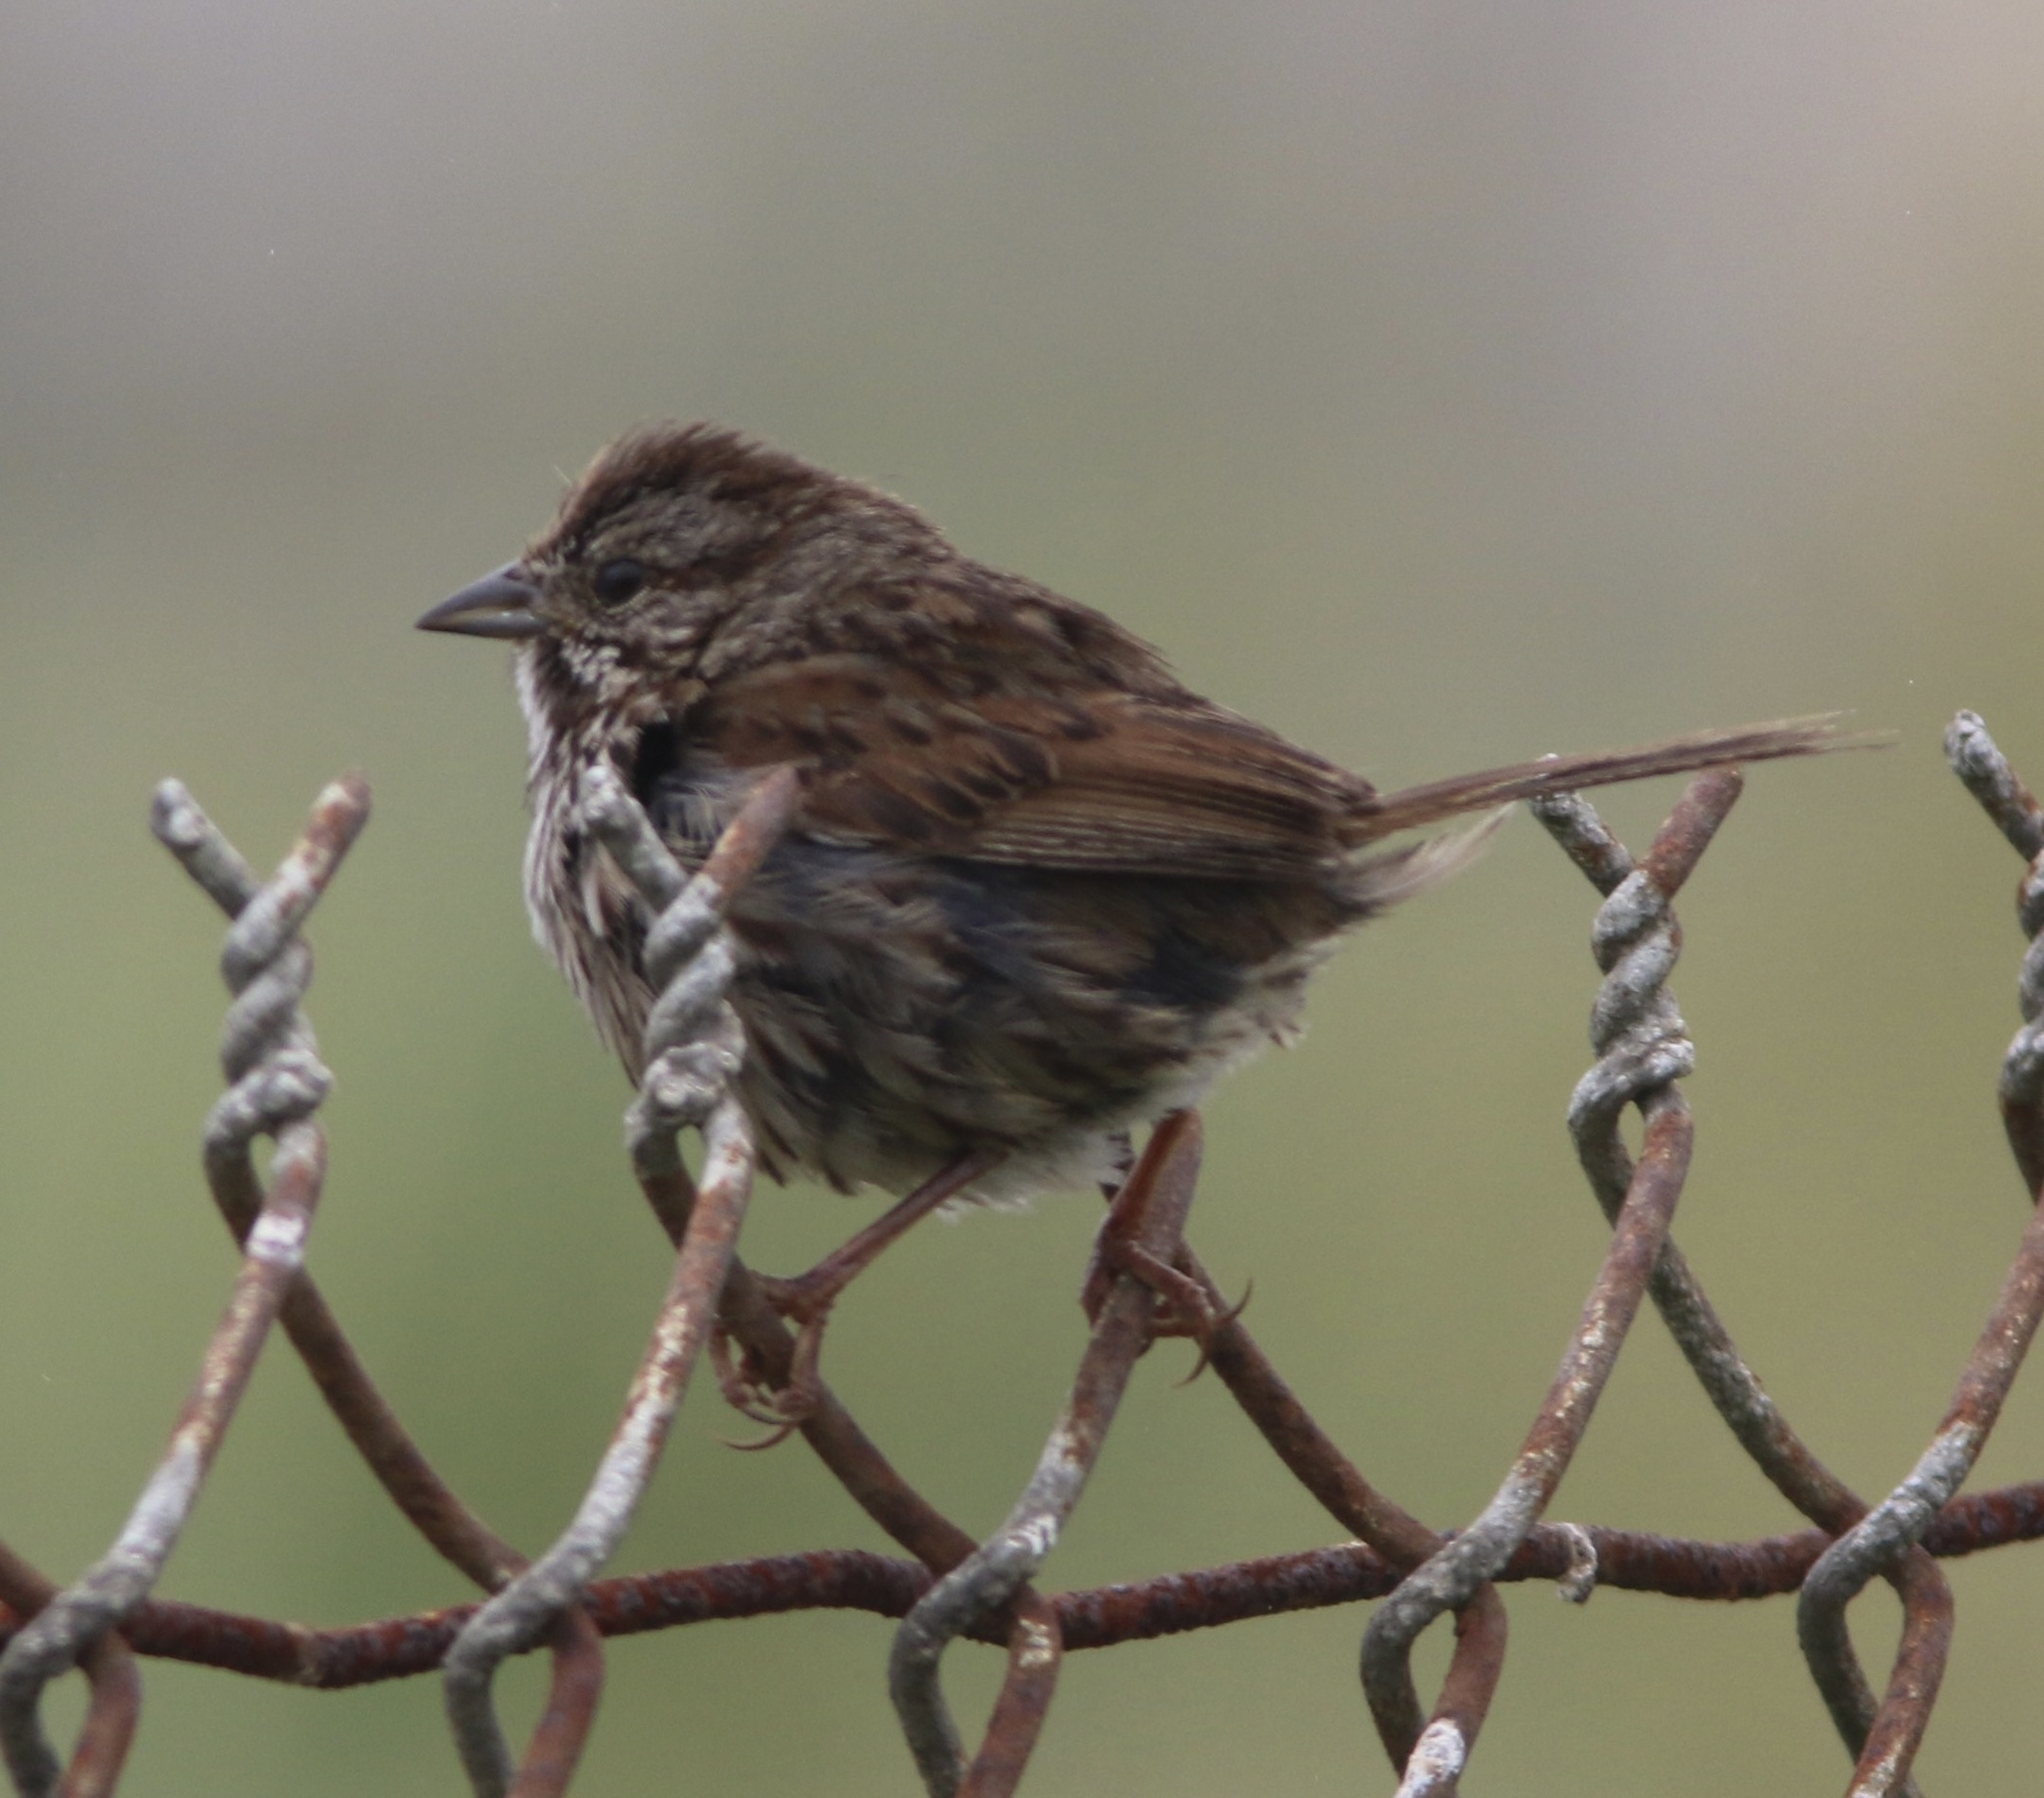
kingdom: Animalia
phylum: Chordata
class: Aves
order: Passeriformes
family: Passerellidae
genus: Melospiza
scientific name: Melospiza melodia
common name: Song sparrow
